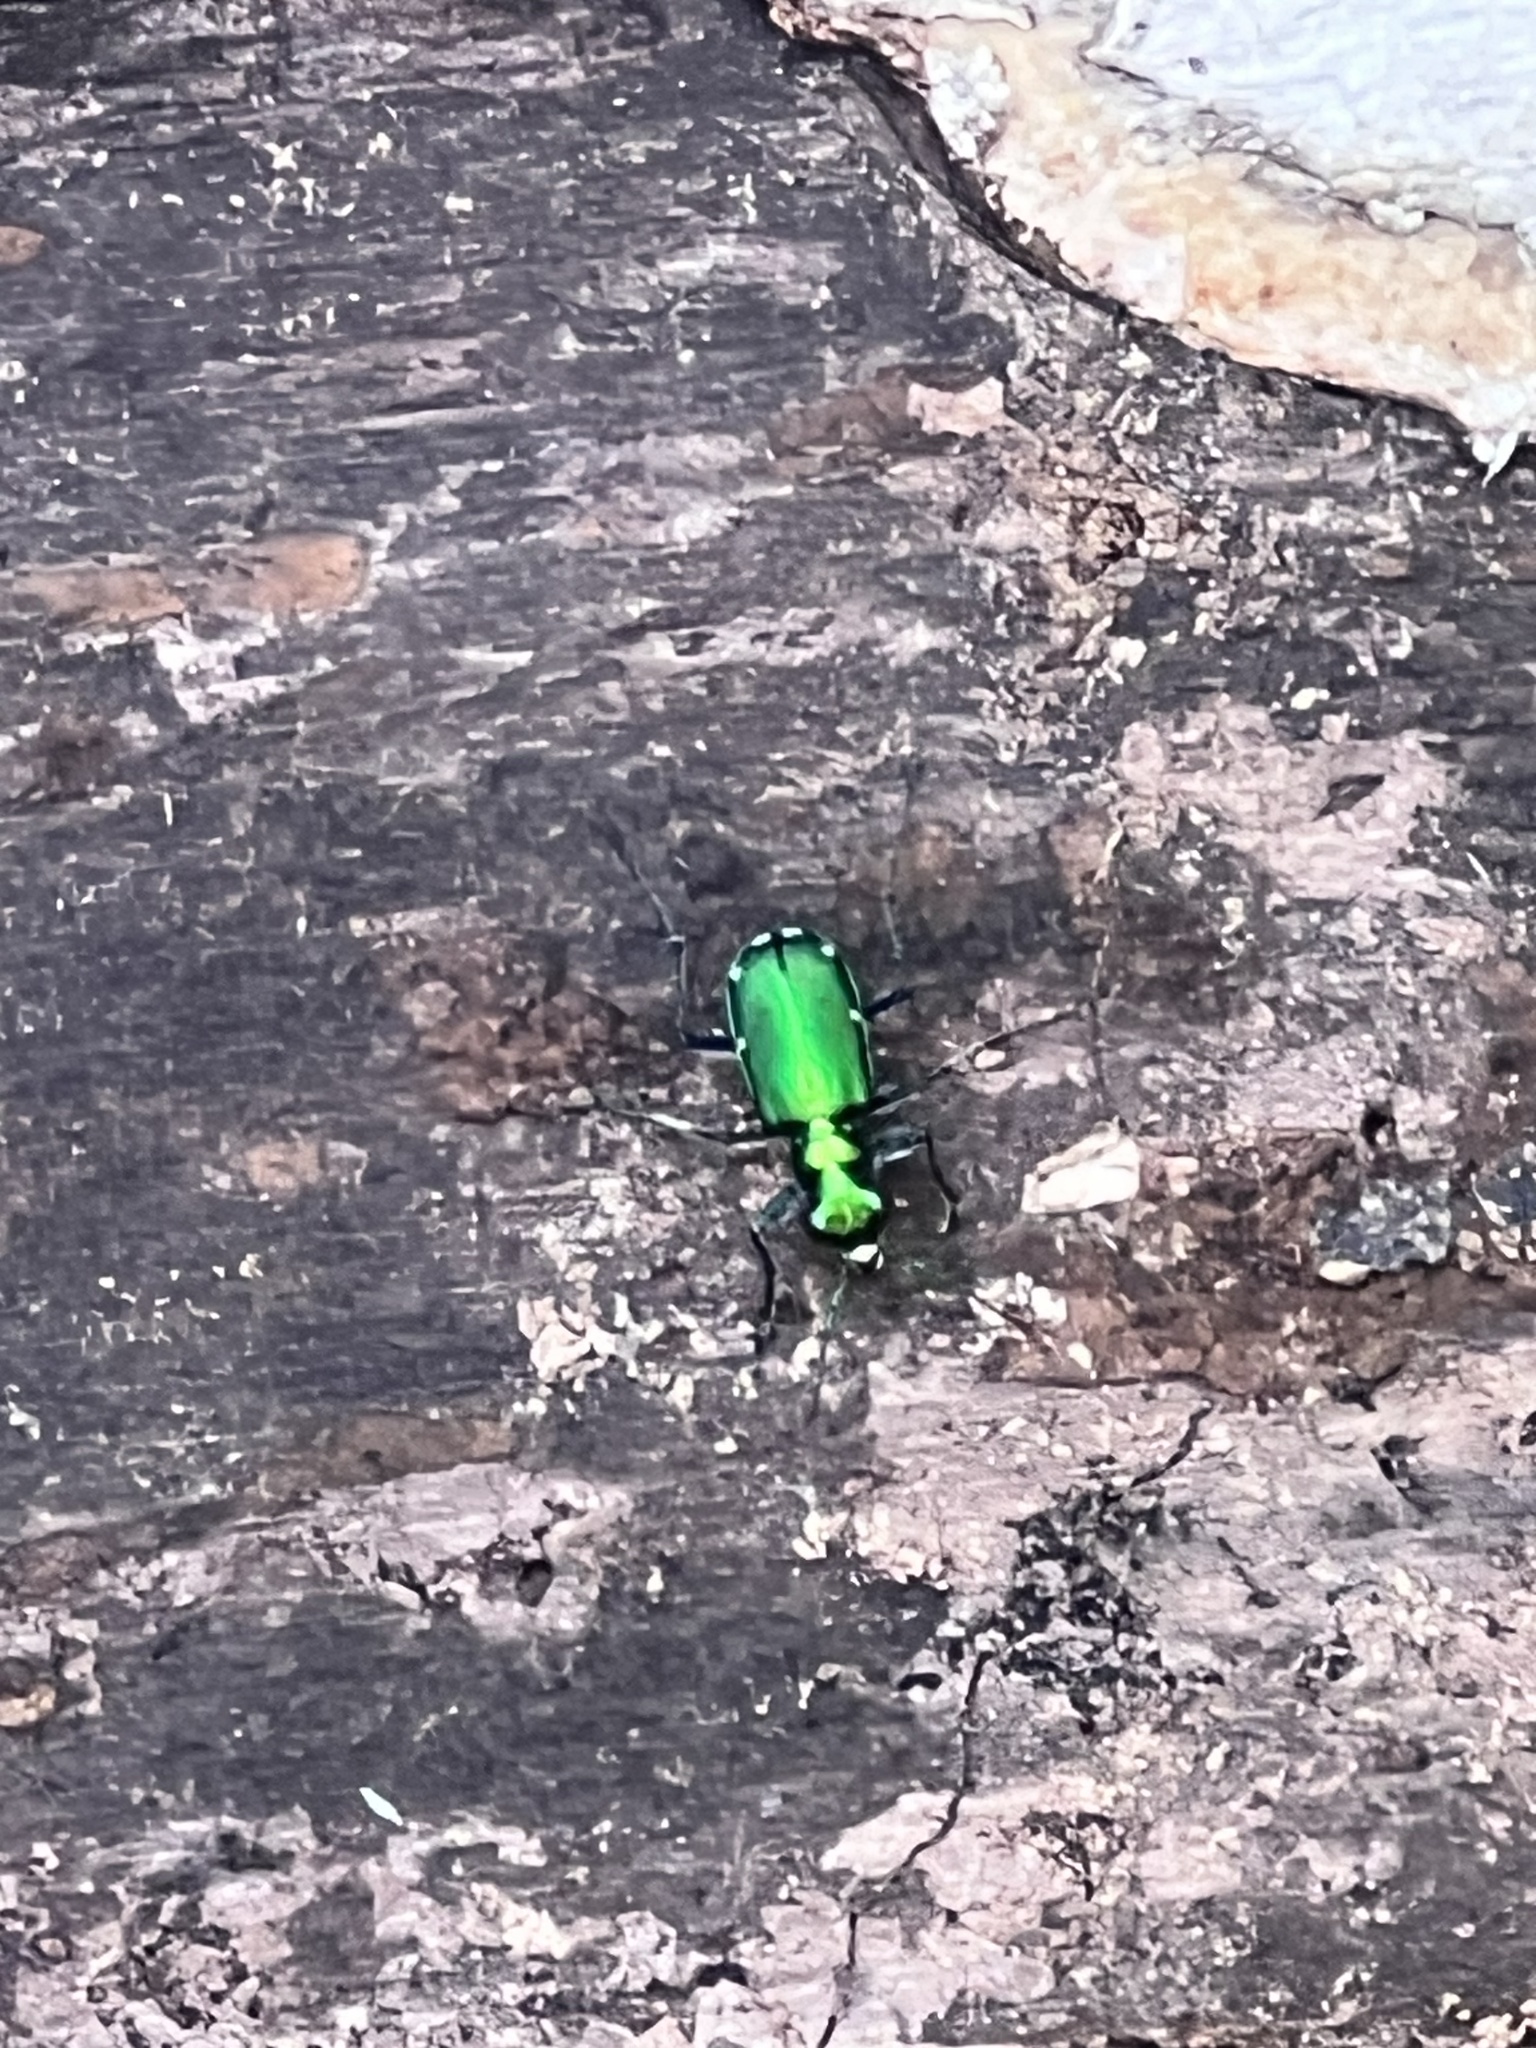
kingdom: Animalia
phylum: Arthropoda
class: Insecta
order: Coleoptera
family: Carabidae
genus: Cicindela
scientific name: Cicindela sexguttata
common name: Six-spotted tiger beetle
